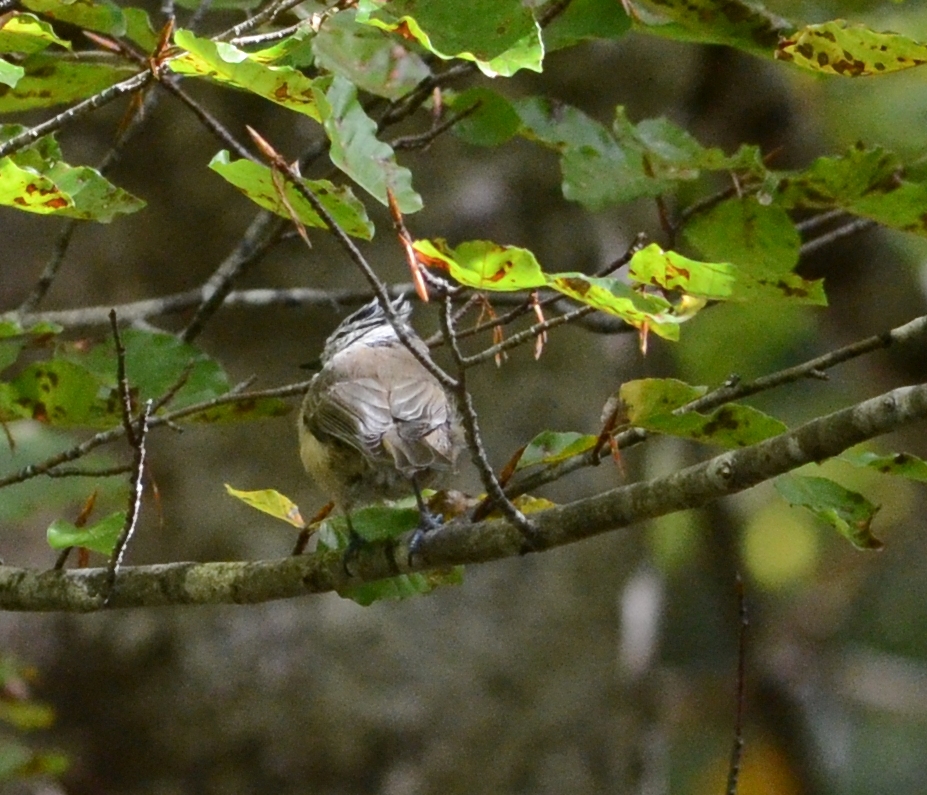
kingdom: Animalia
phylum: Chordata
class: Aves
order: Passeriformes
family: Paridae
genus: Lophophanes
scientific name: Lophophanes cristatus
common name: European crested tit
